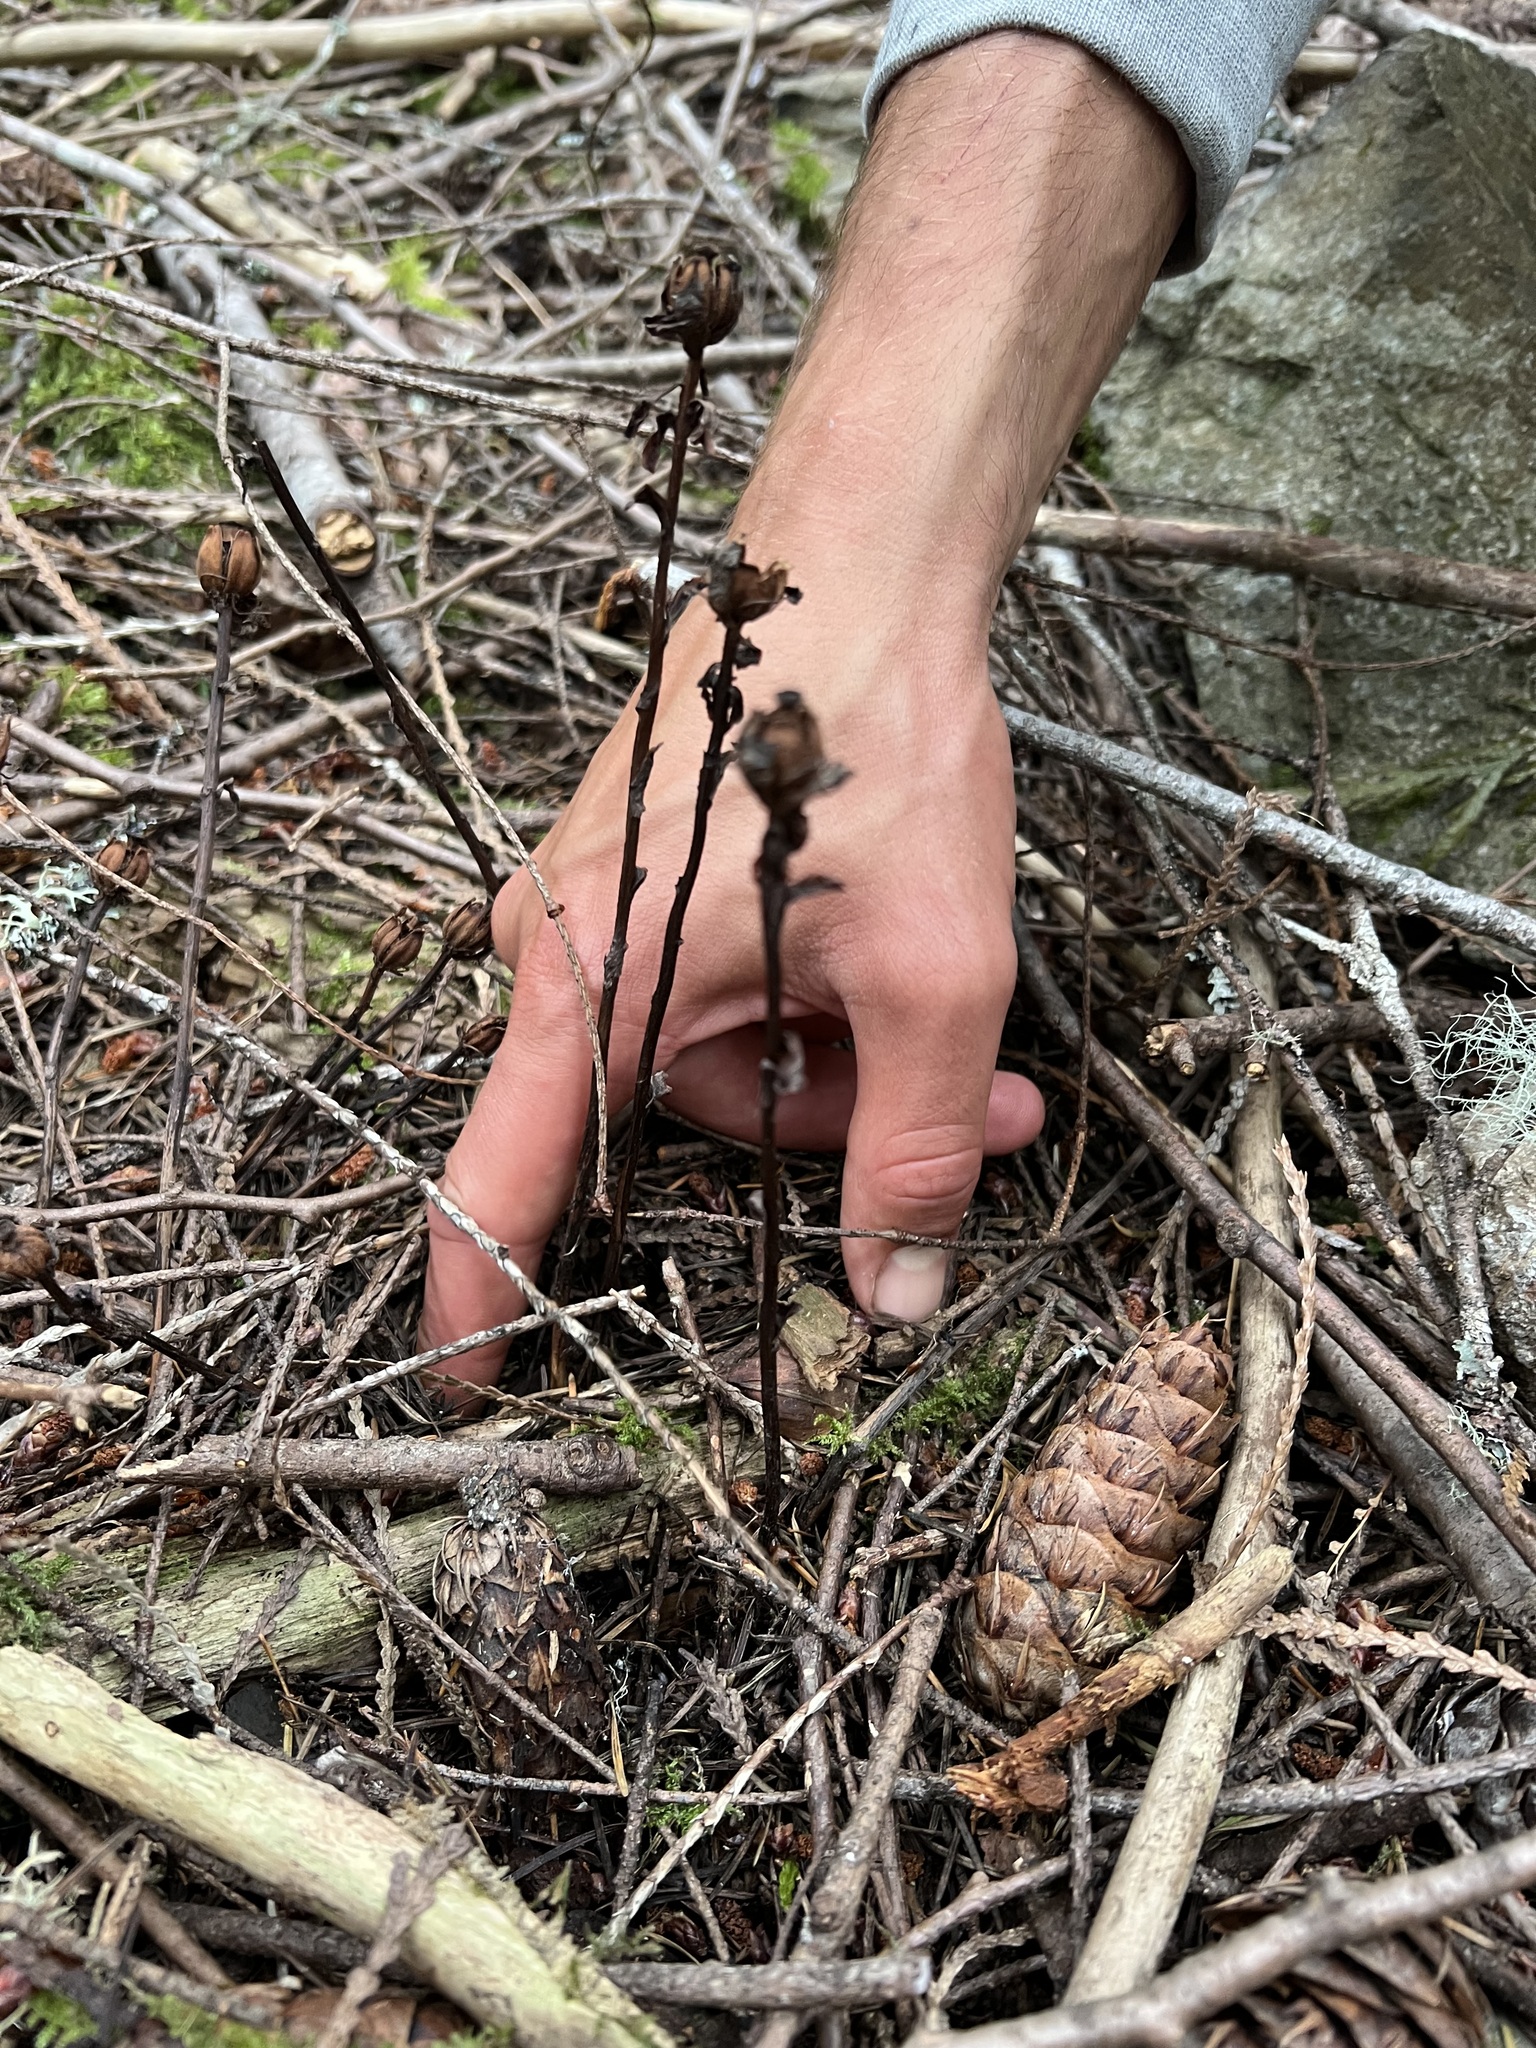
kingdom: Plantae
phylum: Tracheophyta
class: Magnoliopsida
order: Ericales
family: Ericaceae
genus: Monotropa
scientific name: Monotropa uniflora
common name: Convulsion root
